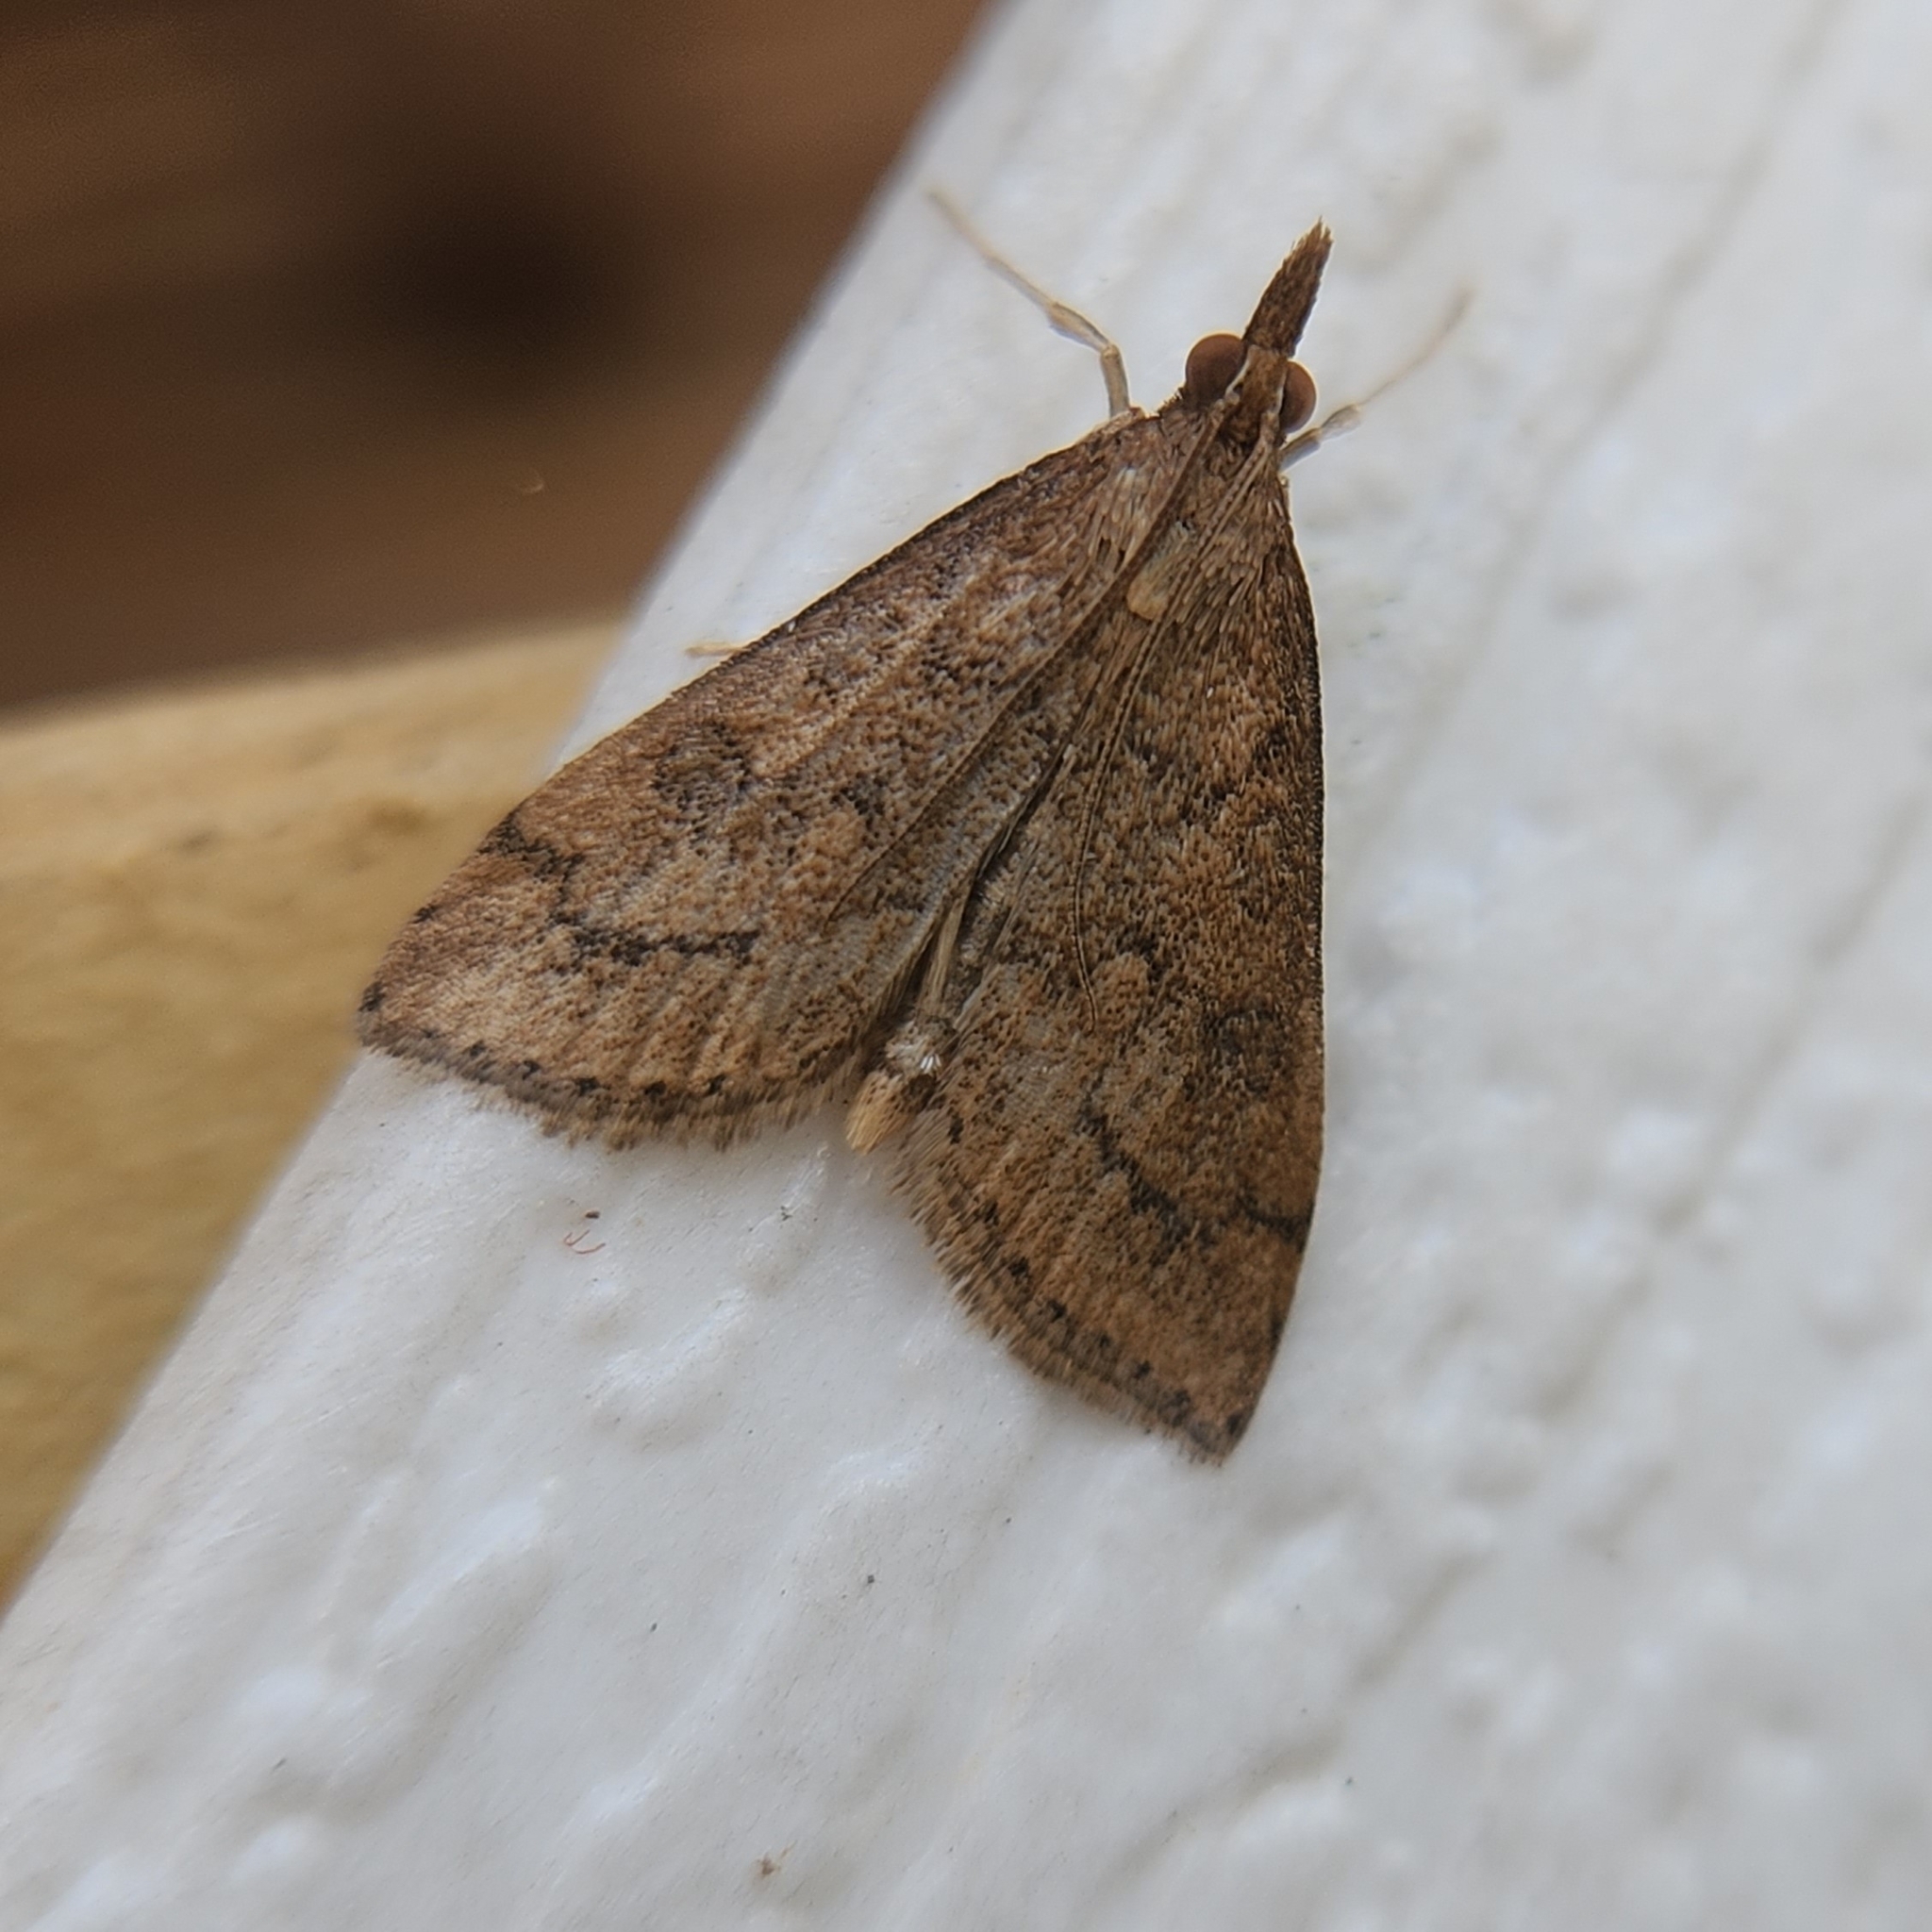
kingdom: Animalia
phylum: Arthropoda
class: Insecta
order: Lepidoptera
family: Crambidae
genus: Udea
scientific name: Udea rubigalis
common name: Celery leaftier moth
